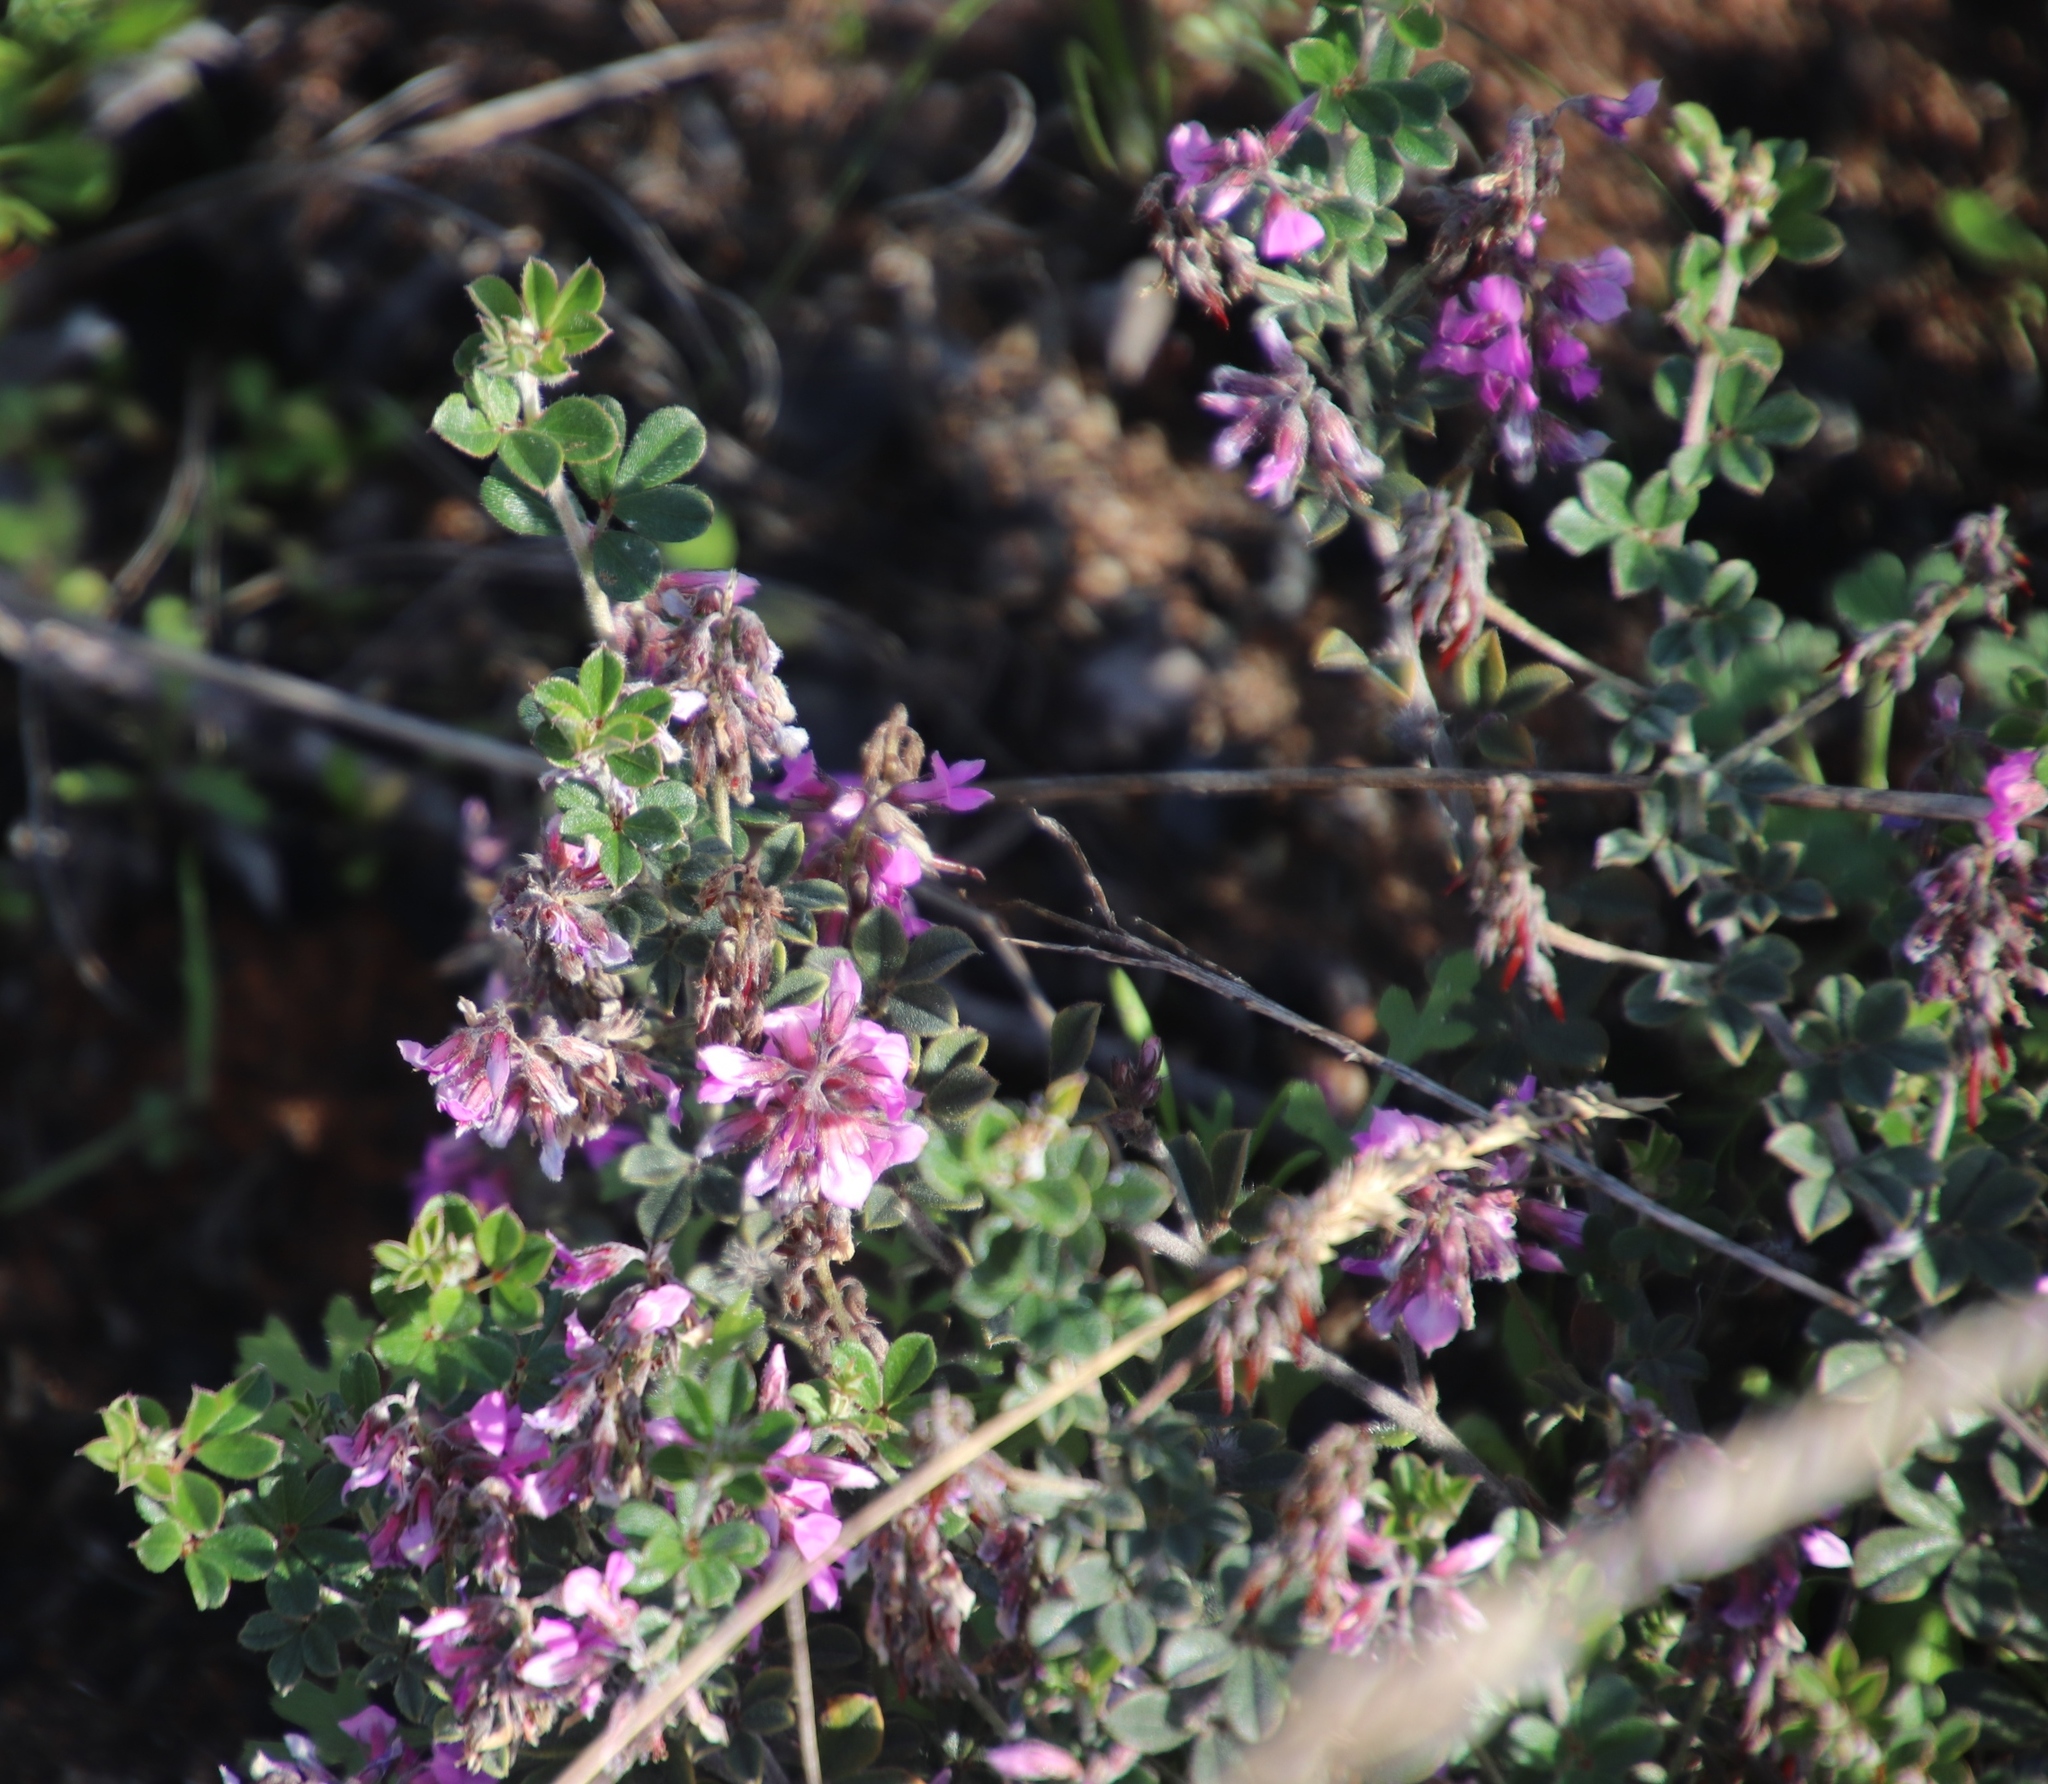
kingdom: Plantae
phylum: Tracheophyta
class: Magnoliopsida
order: Fabales
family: Fabaceae
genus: Indigofera
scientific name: Indigofera mauritanica
